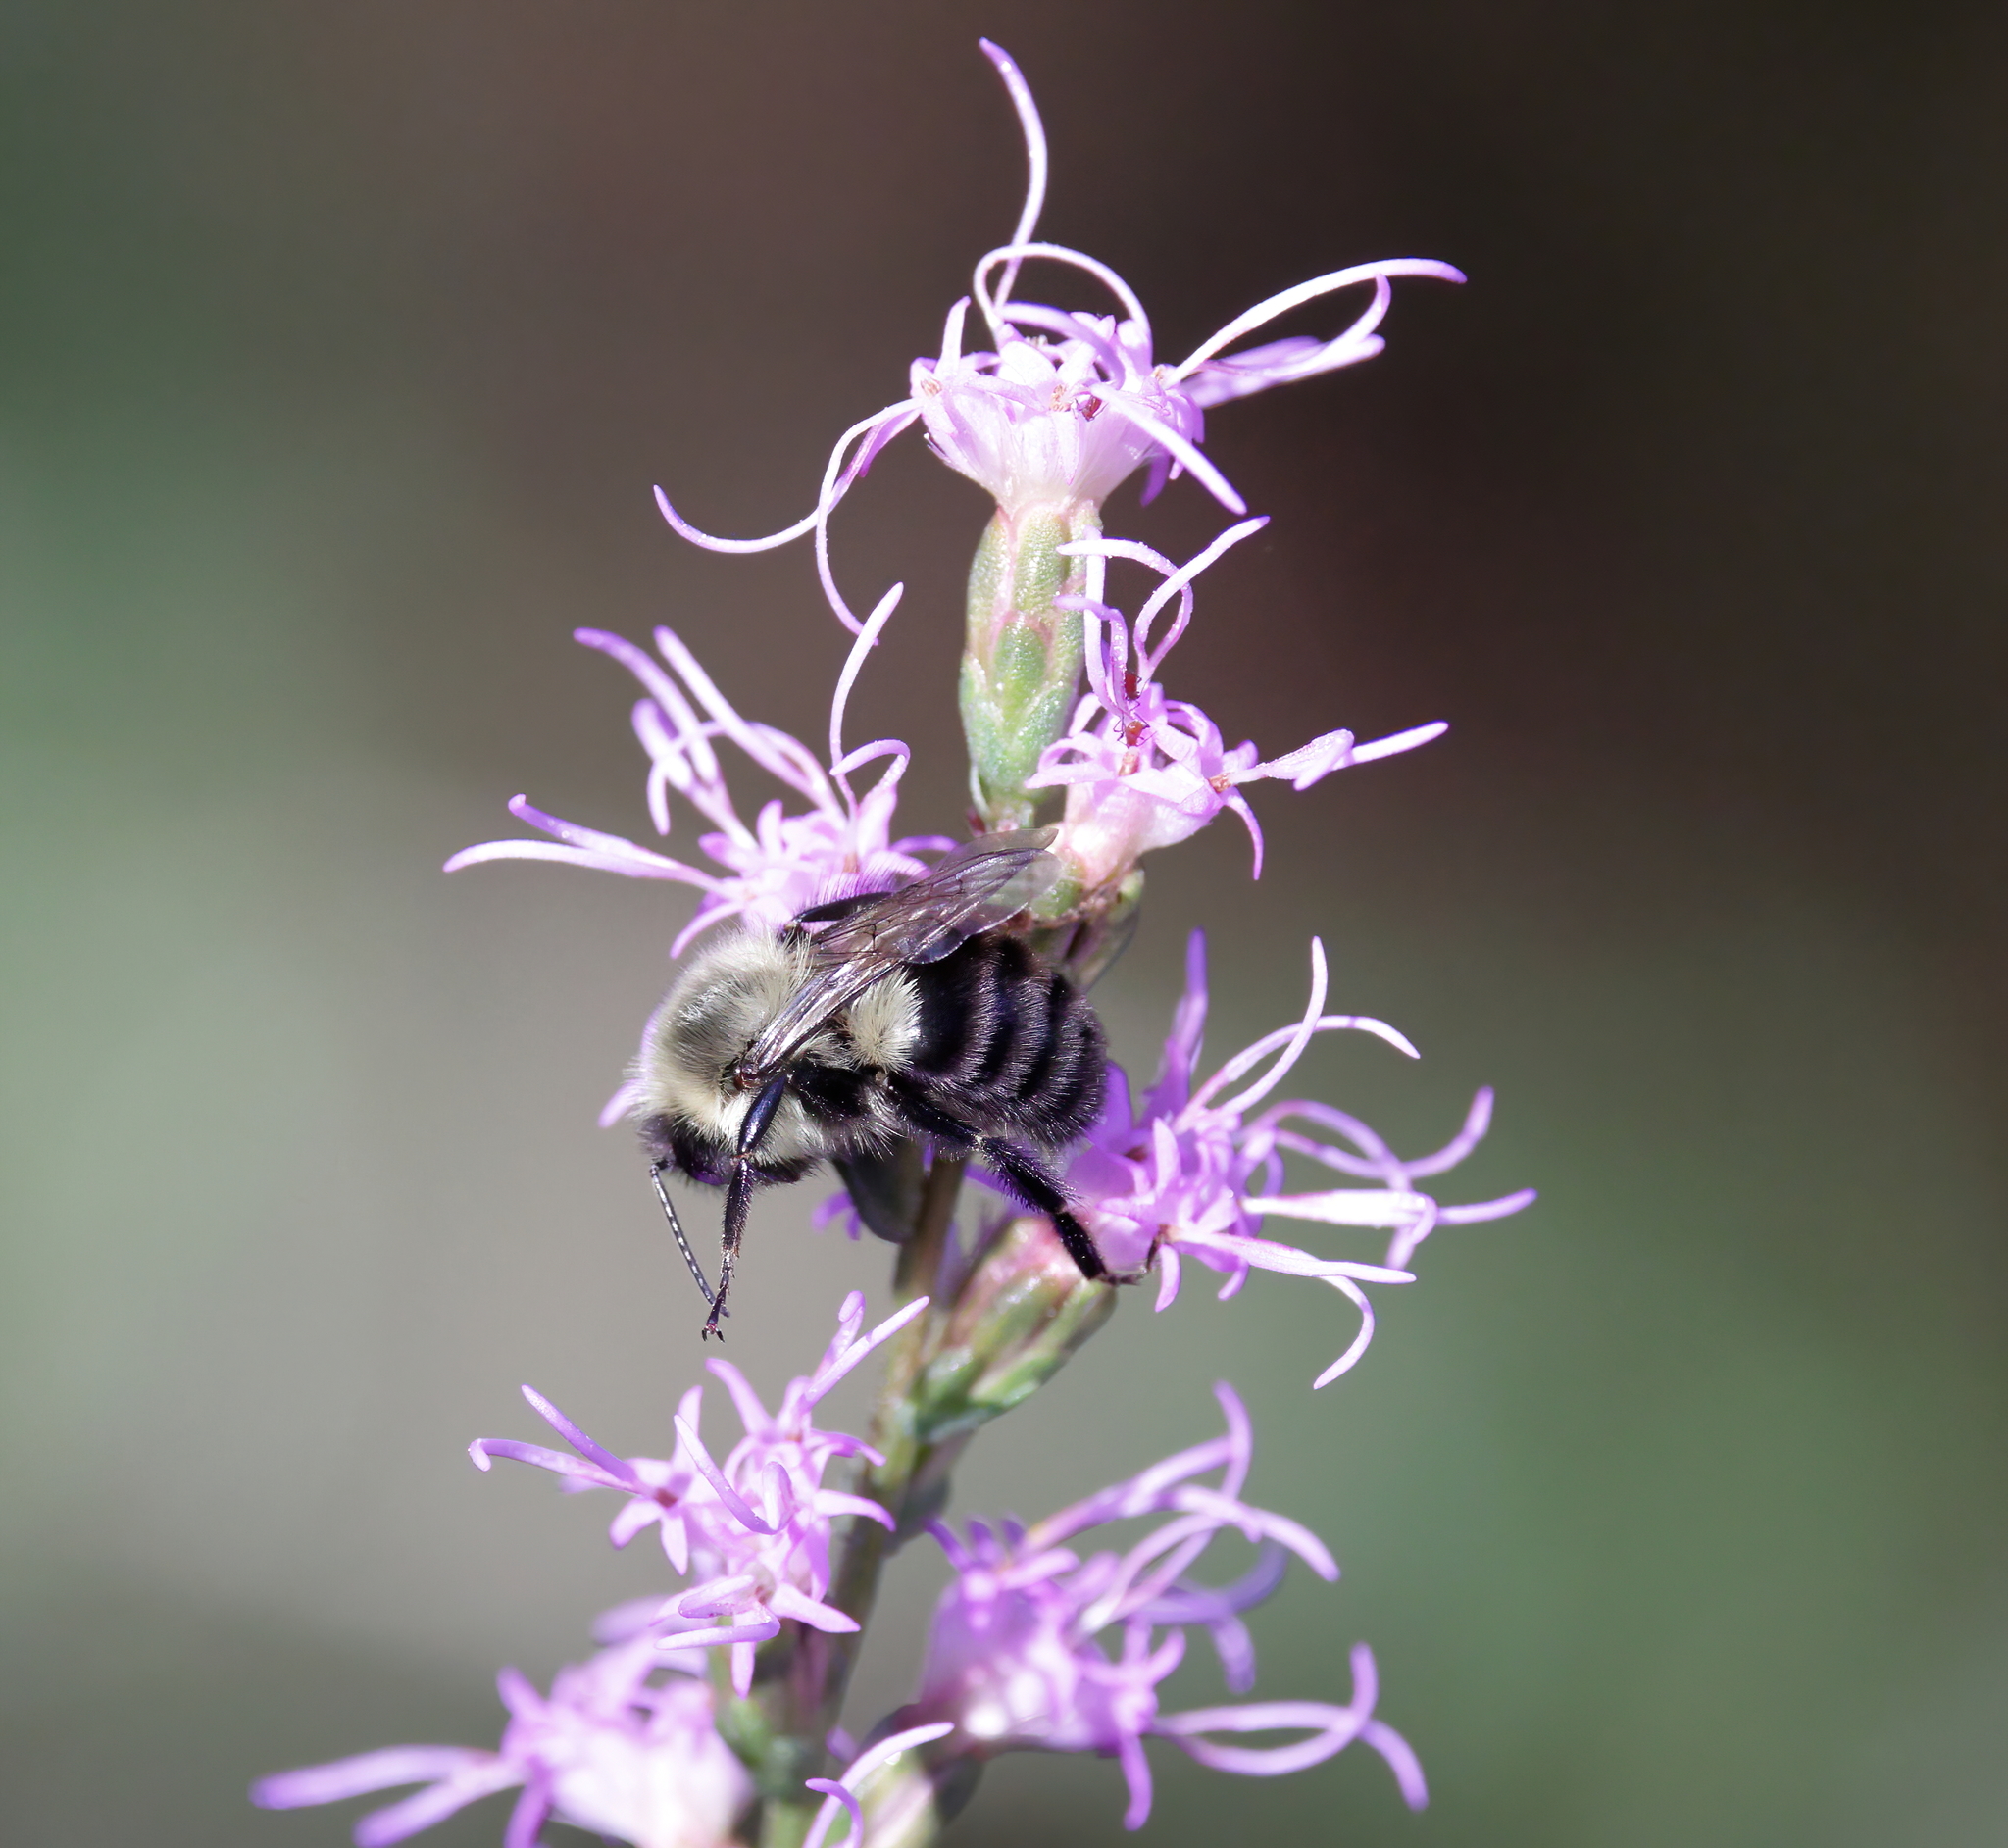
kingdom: Animalia
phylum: Arthropoda
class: Insecta
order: Hymenoptera
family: Apidae
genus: Bombus
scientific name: Bombus impatiens
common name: Common eastern bumble bee
